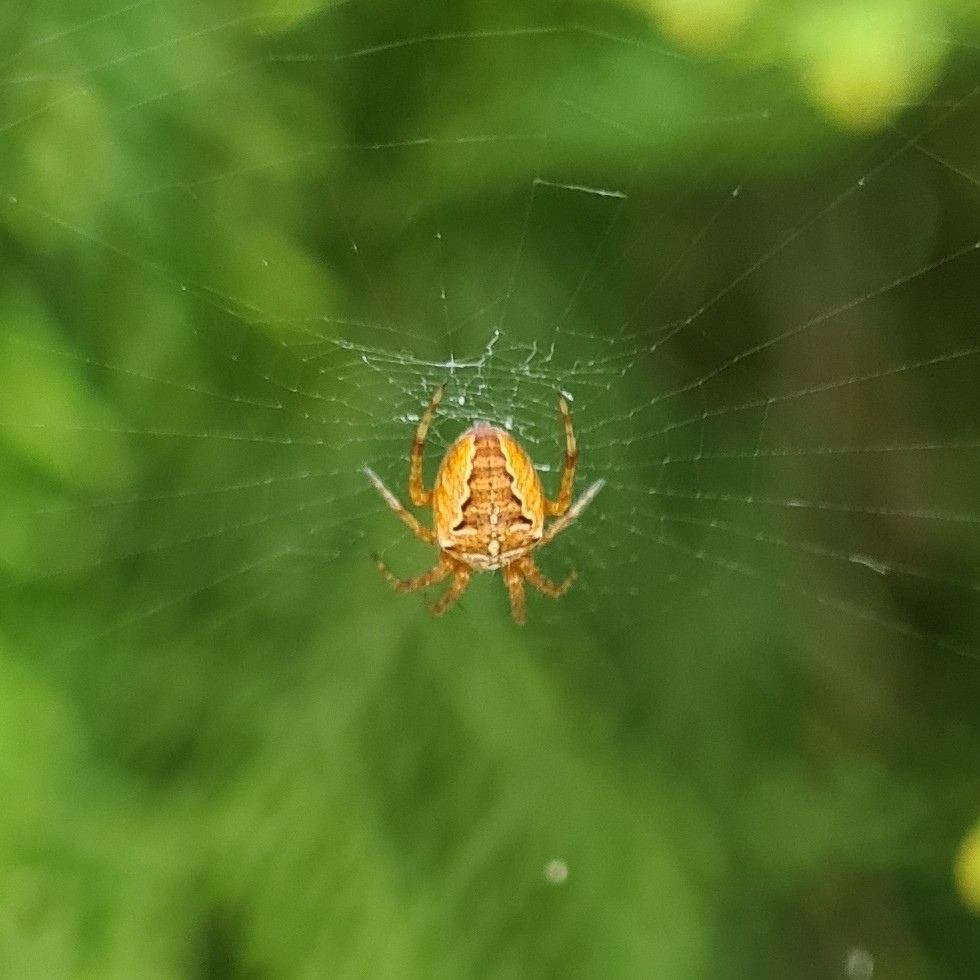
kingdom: Animalia
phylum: Arthropoda
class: Arachnida
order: Araneae
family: Araneidae
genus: Araneus
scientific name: Araneus diadematus
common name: Cross orbweaver
